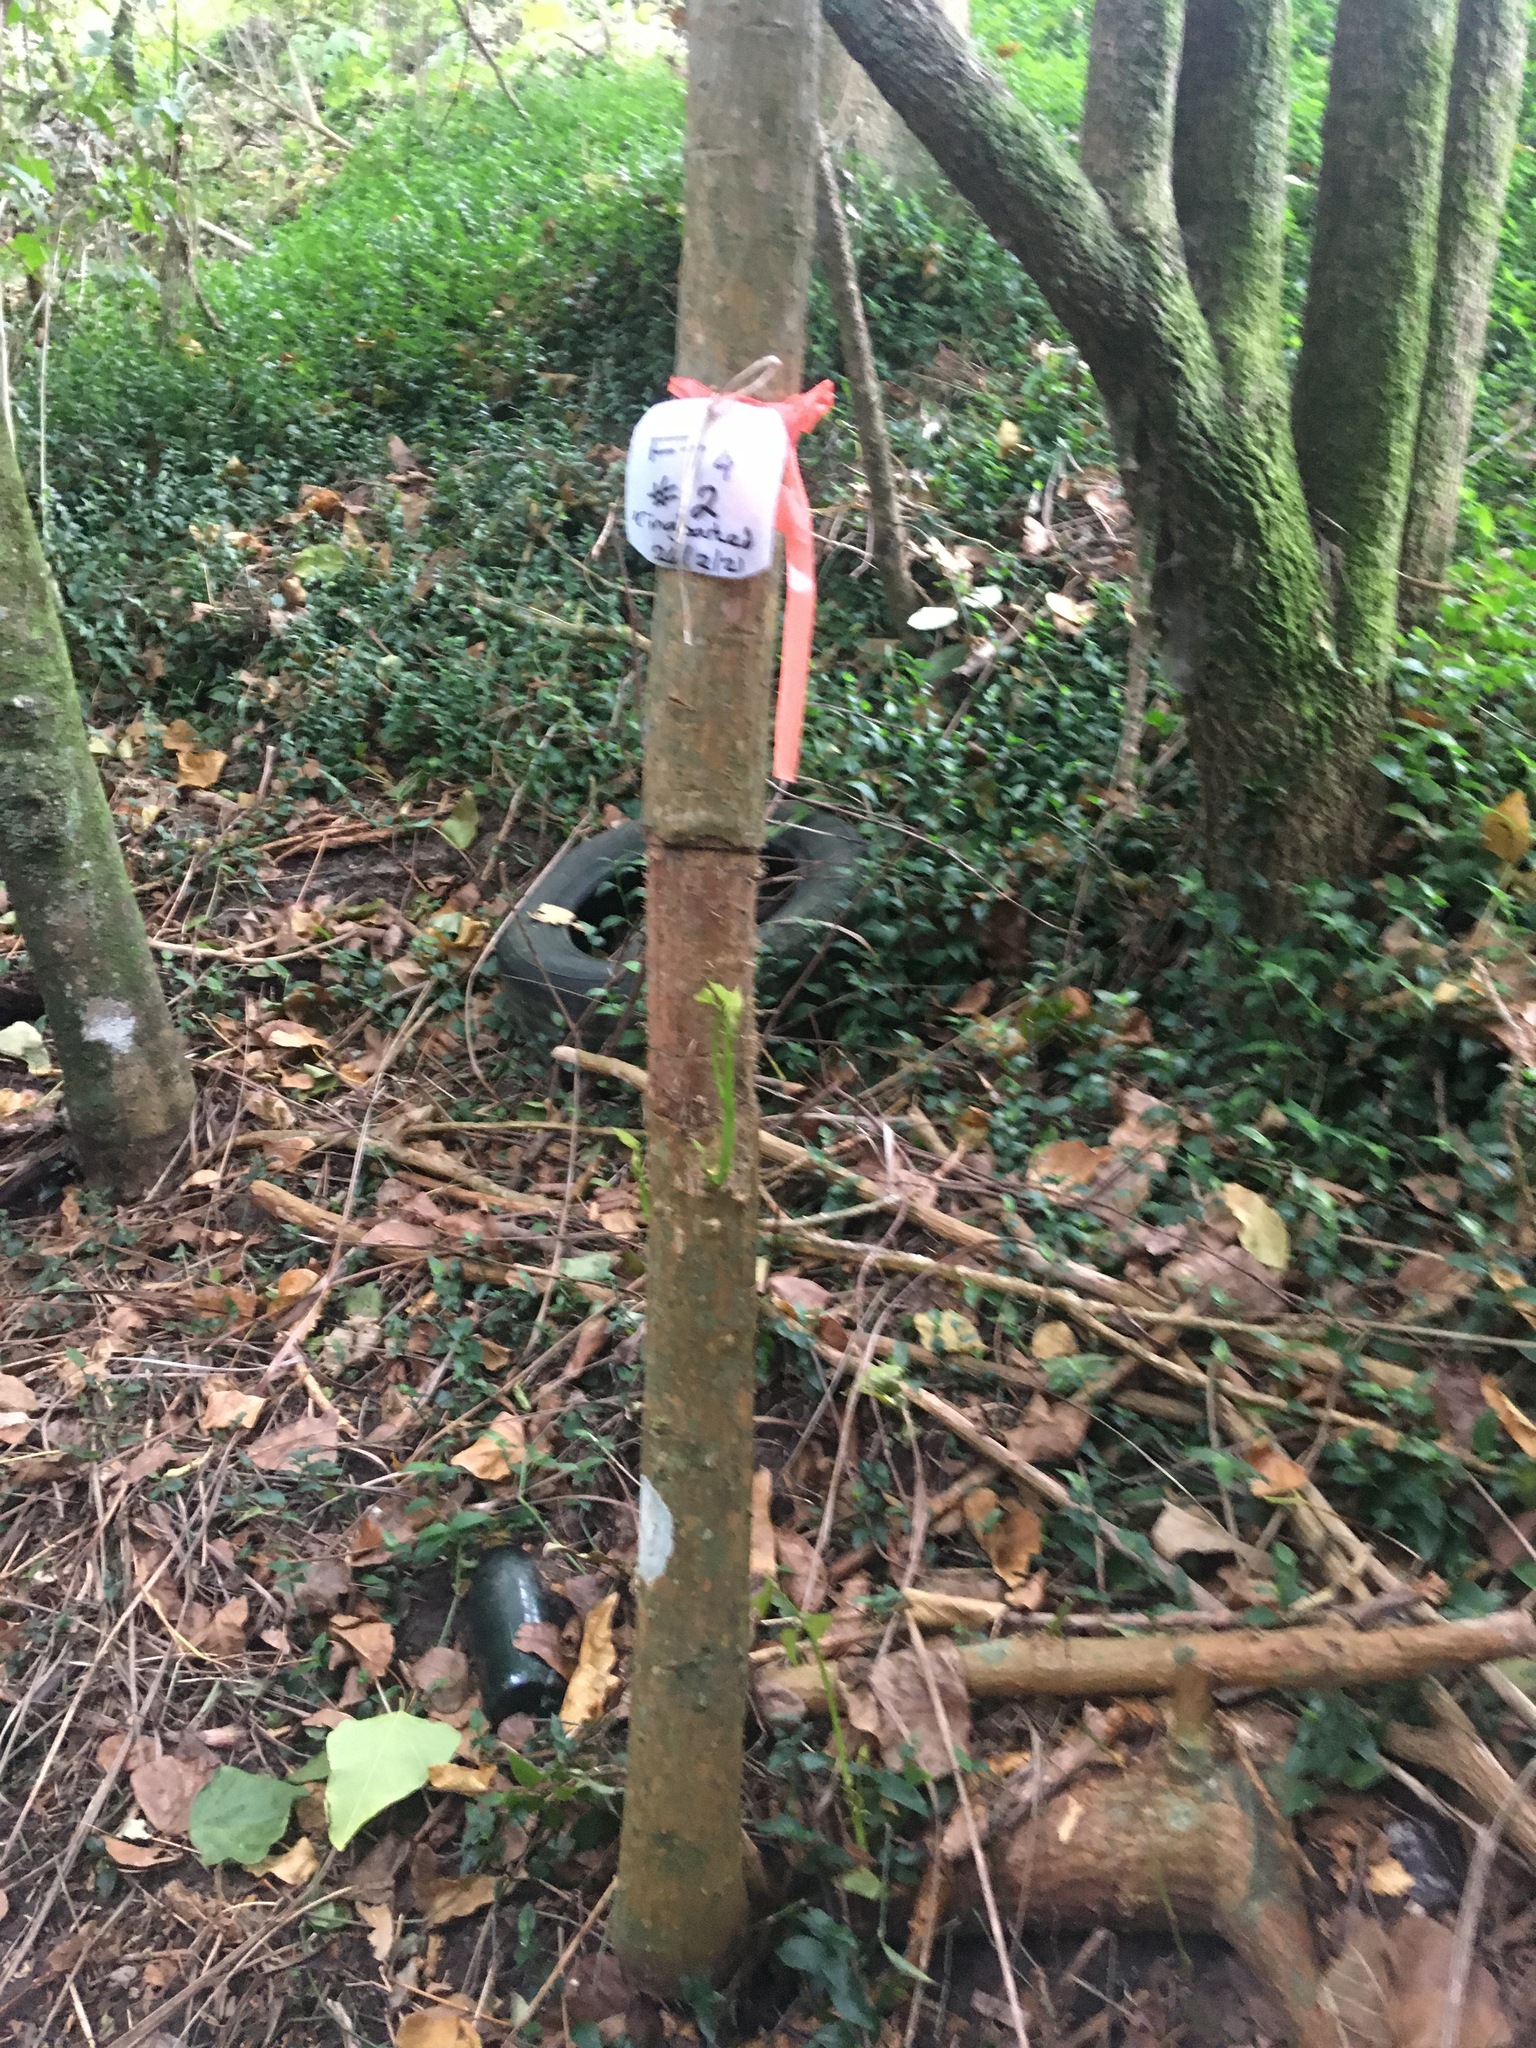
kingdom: Plantae
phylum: Tracheophyta
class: Magnoliopsida
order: Fabales
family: Fabaceae
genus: Erythrina
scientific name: Erythrina sykesii
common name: Coraltree
